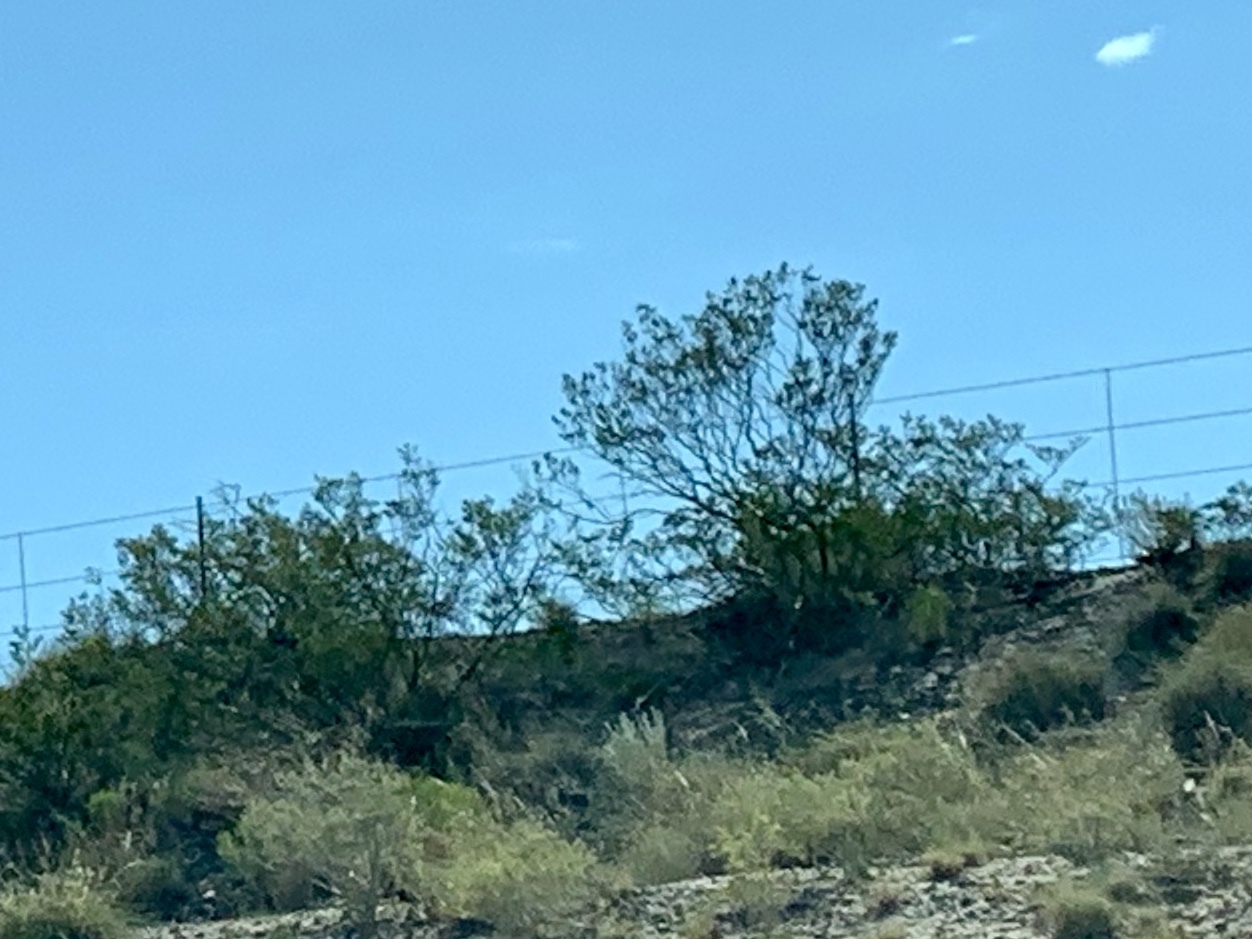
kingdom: Plantae
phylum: Tracheophyta
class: Magnoliopsida
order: Zygophyllales
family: Zygophyllaceae
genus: Larrea
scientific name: Larrea tridentata
